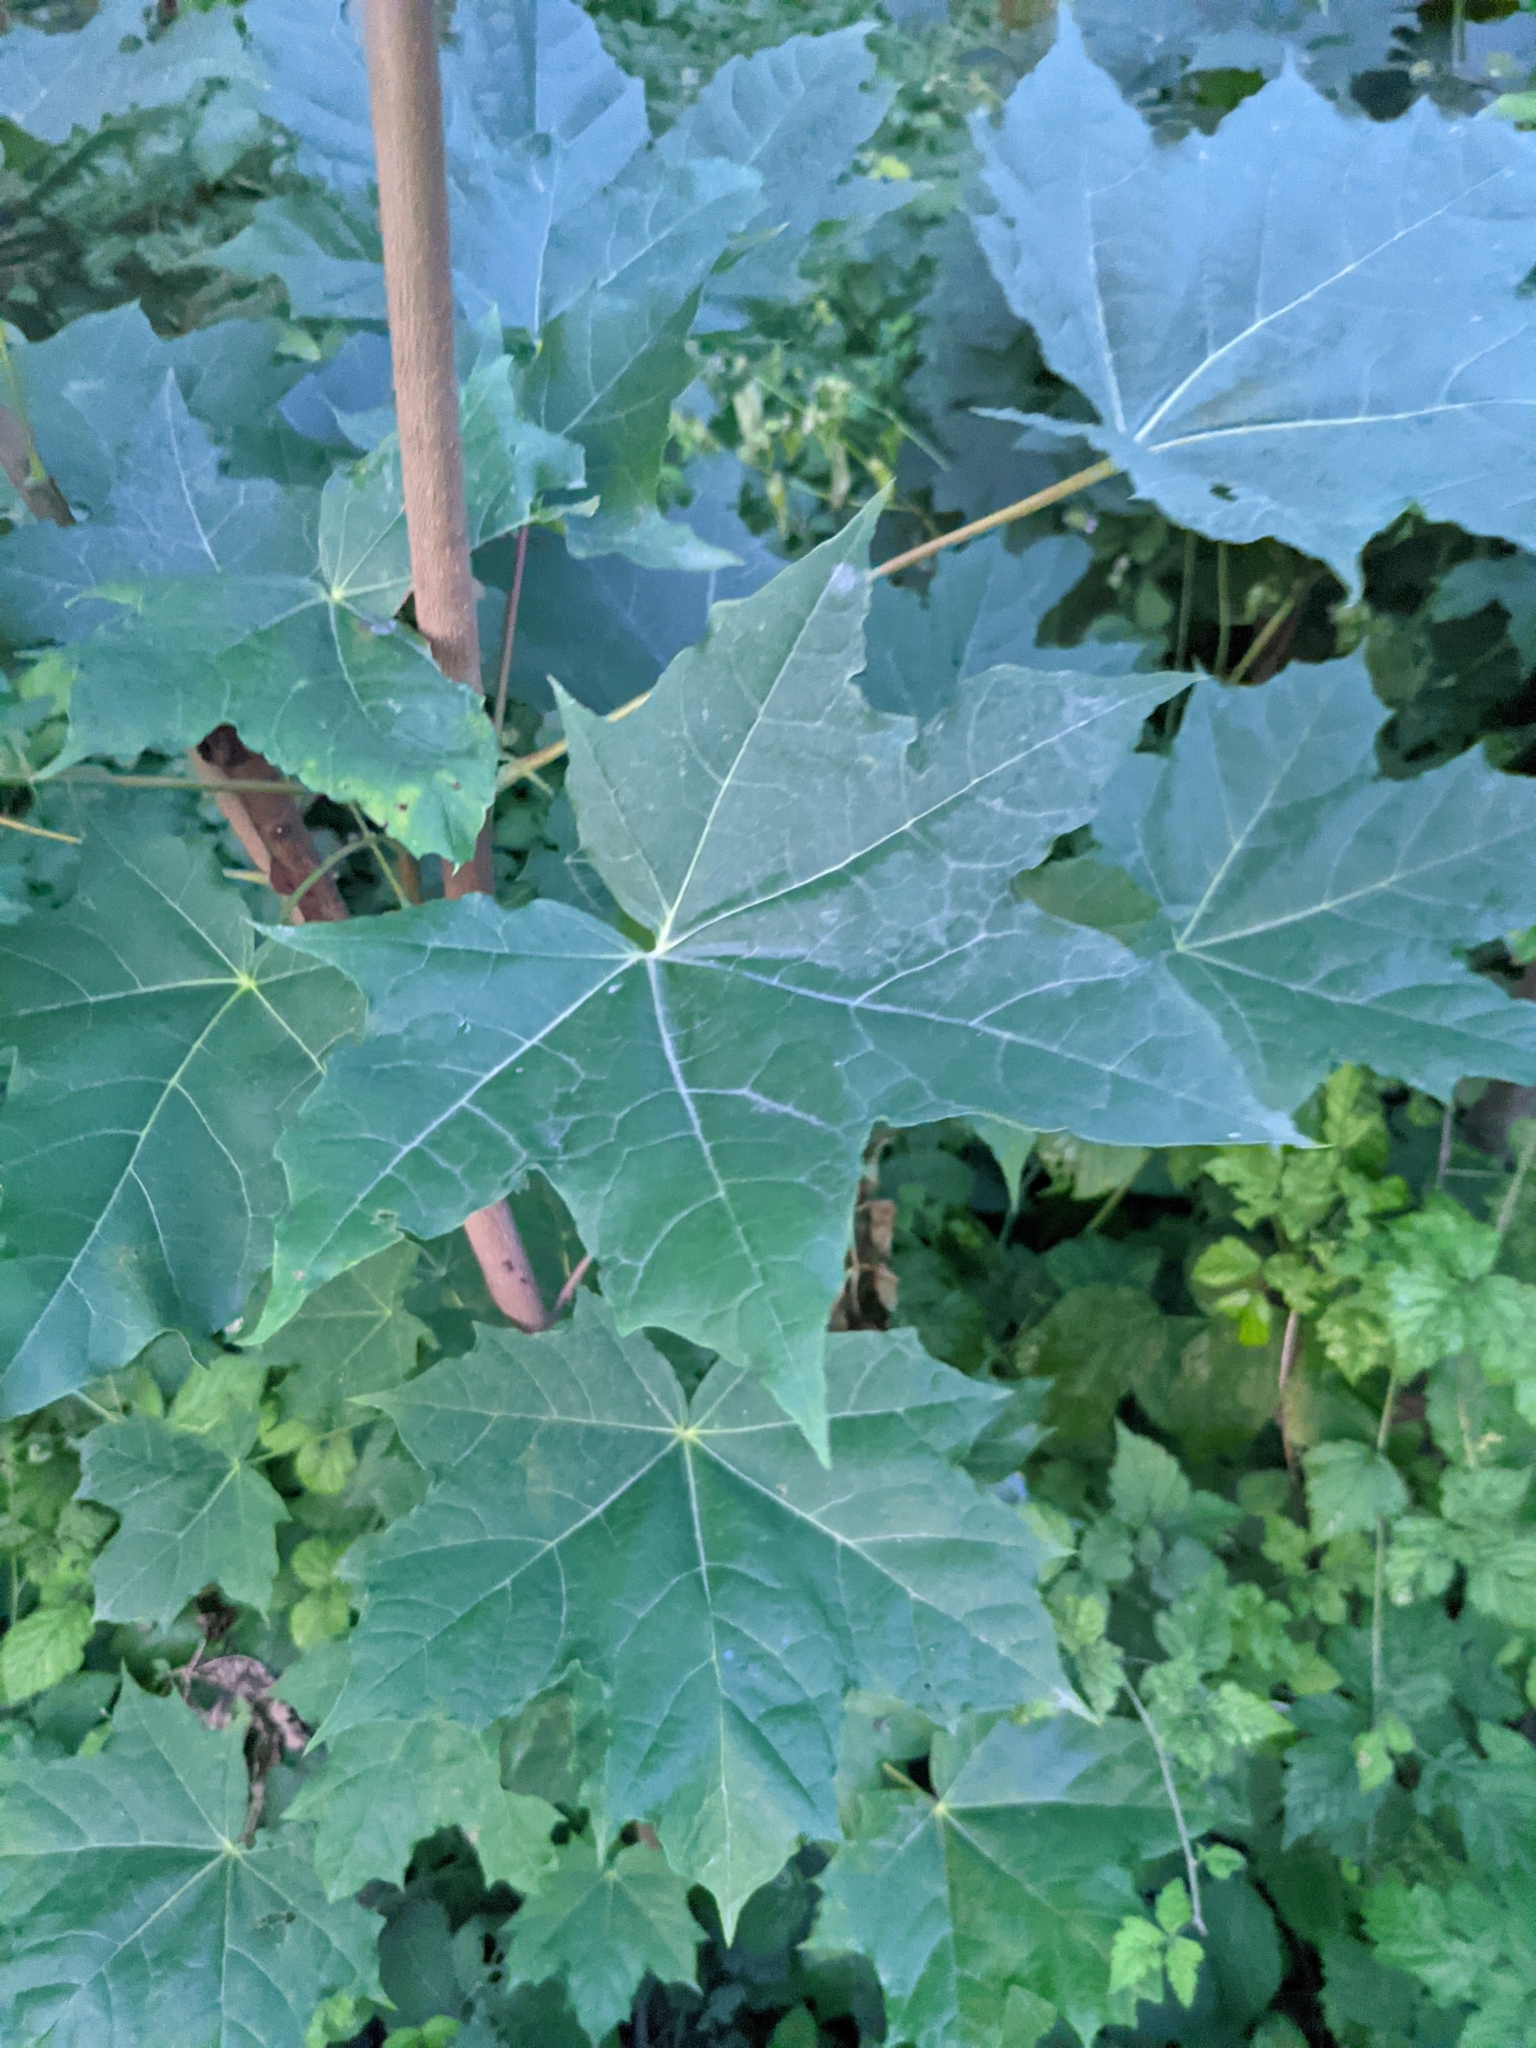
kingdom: Plantae
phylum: Tracheophyta
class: Magnoliopsida
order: Sapindales
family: Sapindaceae
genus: Acer
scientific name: Acer platanoides
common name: Norway maple
